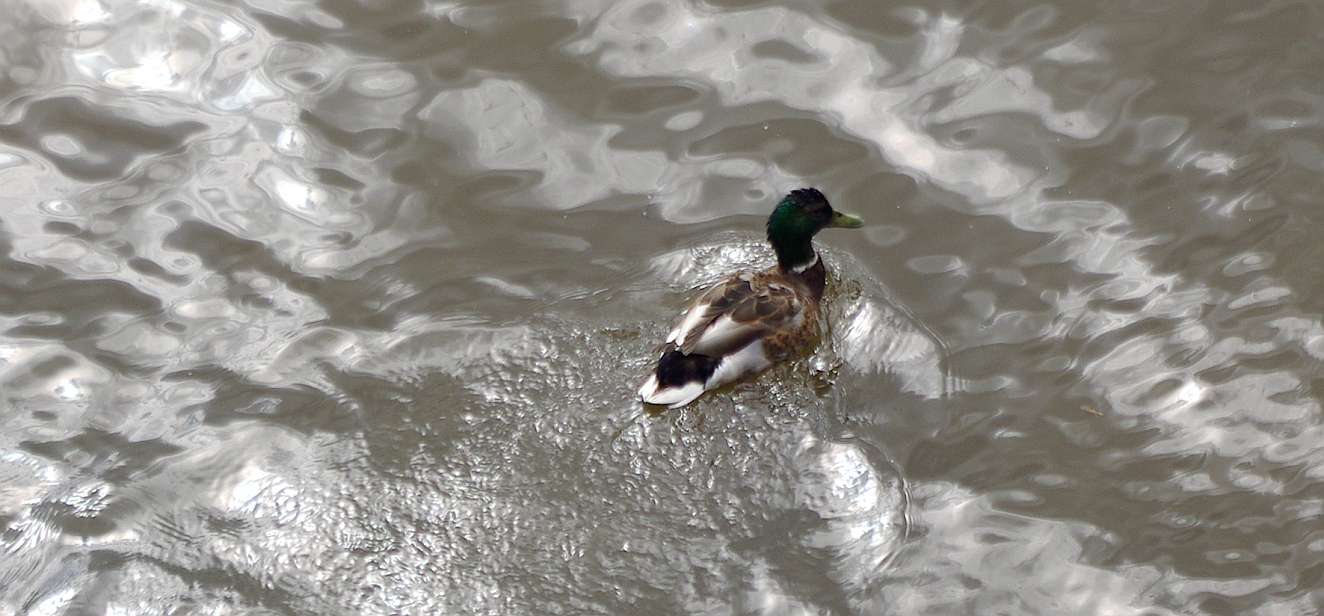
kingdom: Animalia
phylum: Chordata
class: Aves
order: Anseriformes
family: Anatidae
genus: Anas
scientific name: Anas platyrhynchos
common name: Mallard
